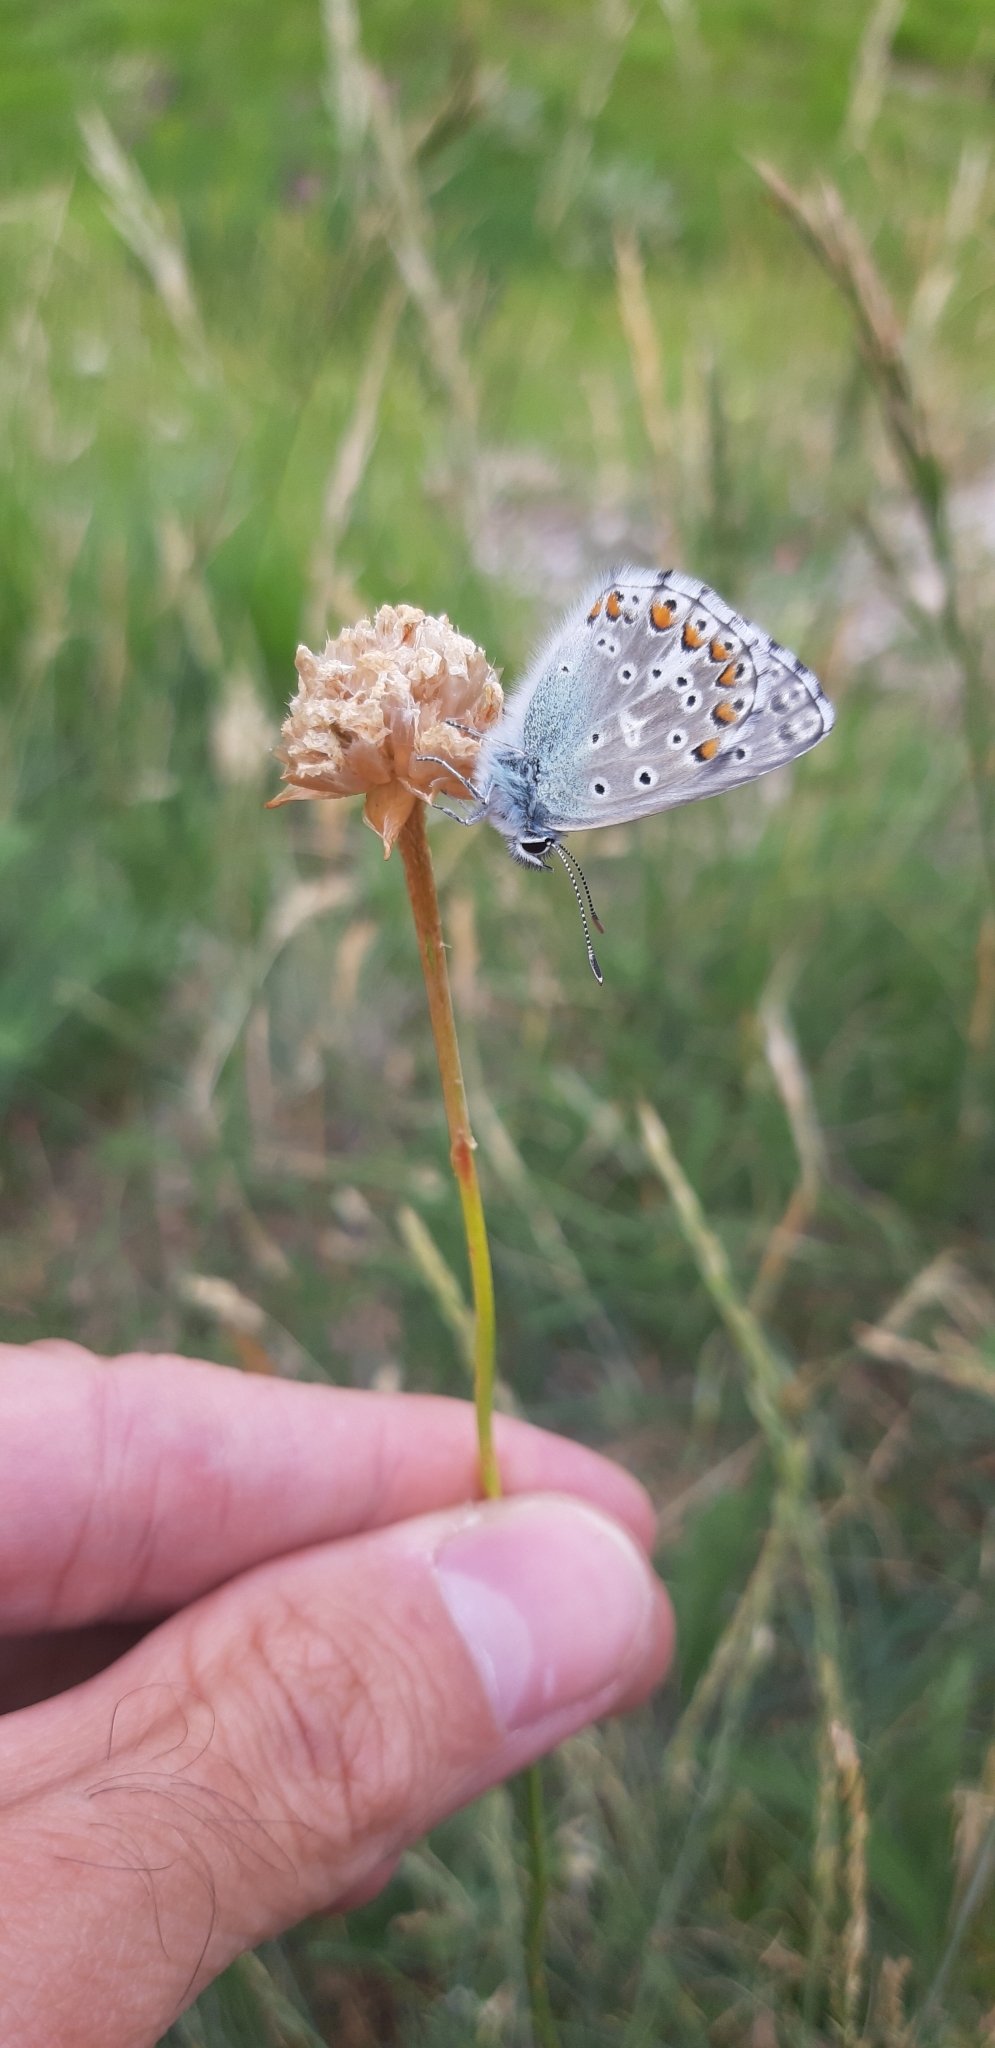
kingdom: Animalia
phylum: Arthropoda
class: Insecta
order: Lepidoptera
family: Lycaenidae
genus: Lysandra
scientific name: Lysandra bellargus
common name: Adonis blue
